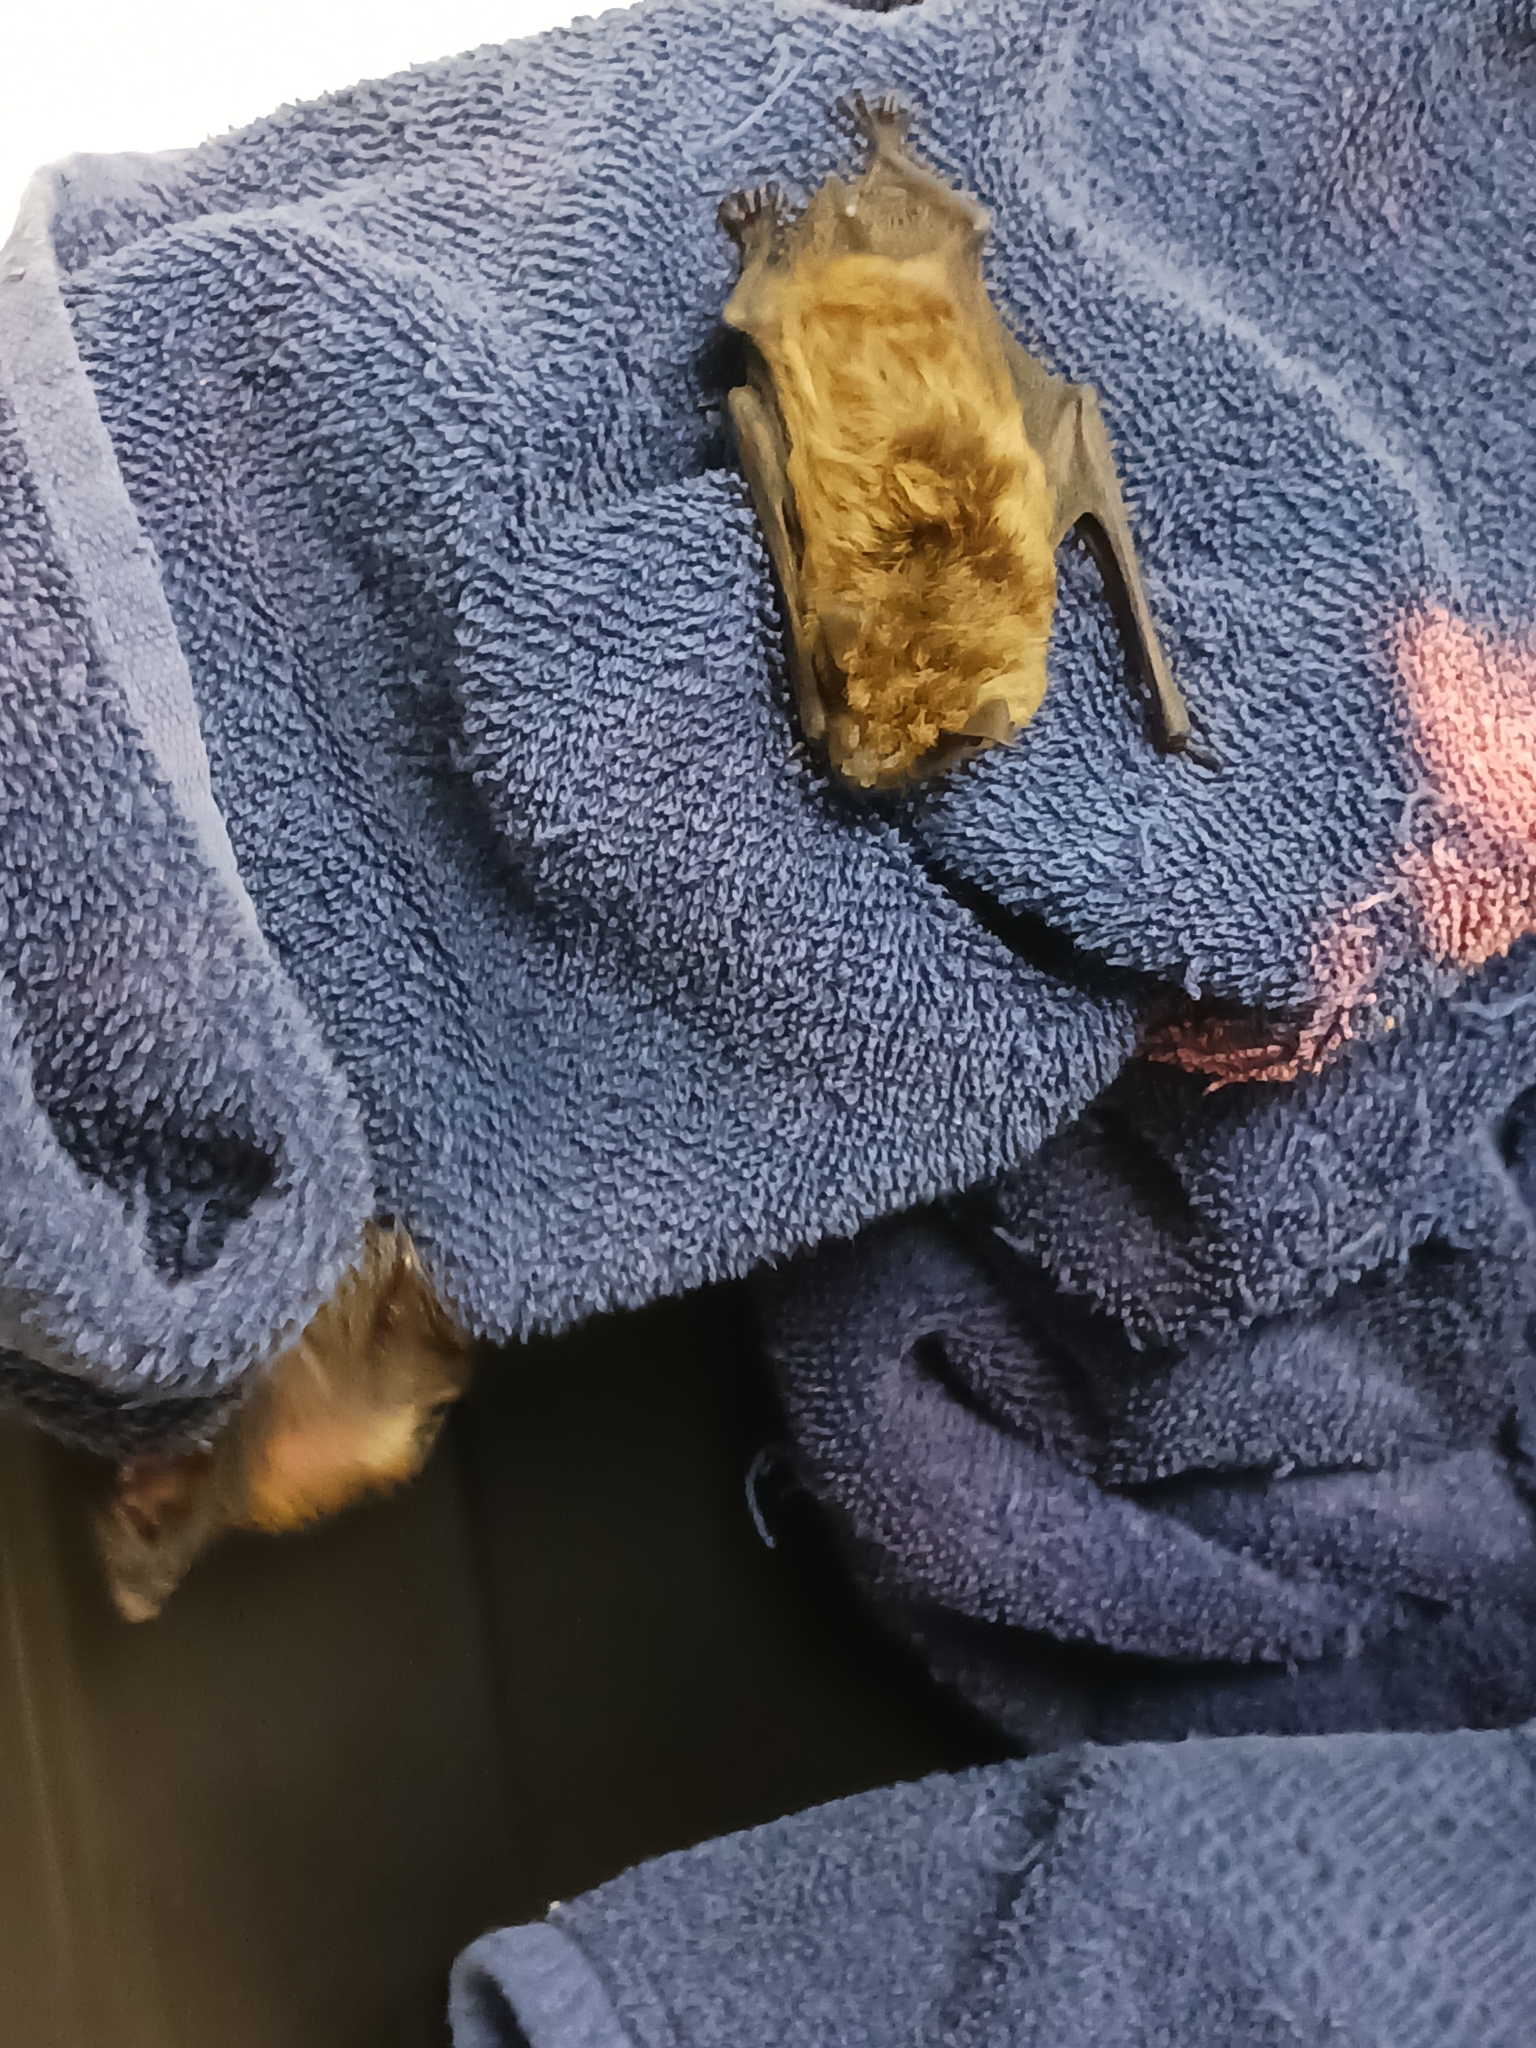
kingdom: Animalia
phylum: Chordata
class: Mammalia
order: Chiroptera
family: Vespertilionidae
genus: Eptesicus
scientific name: Eptesicus fuscus
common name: Big brown bat
